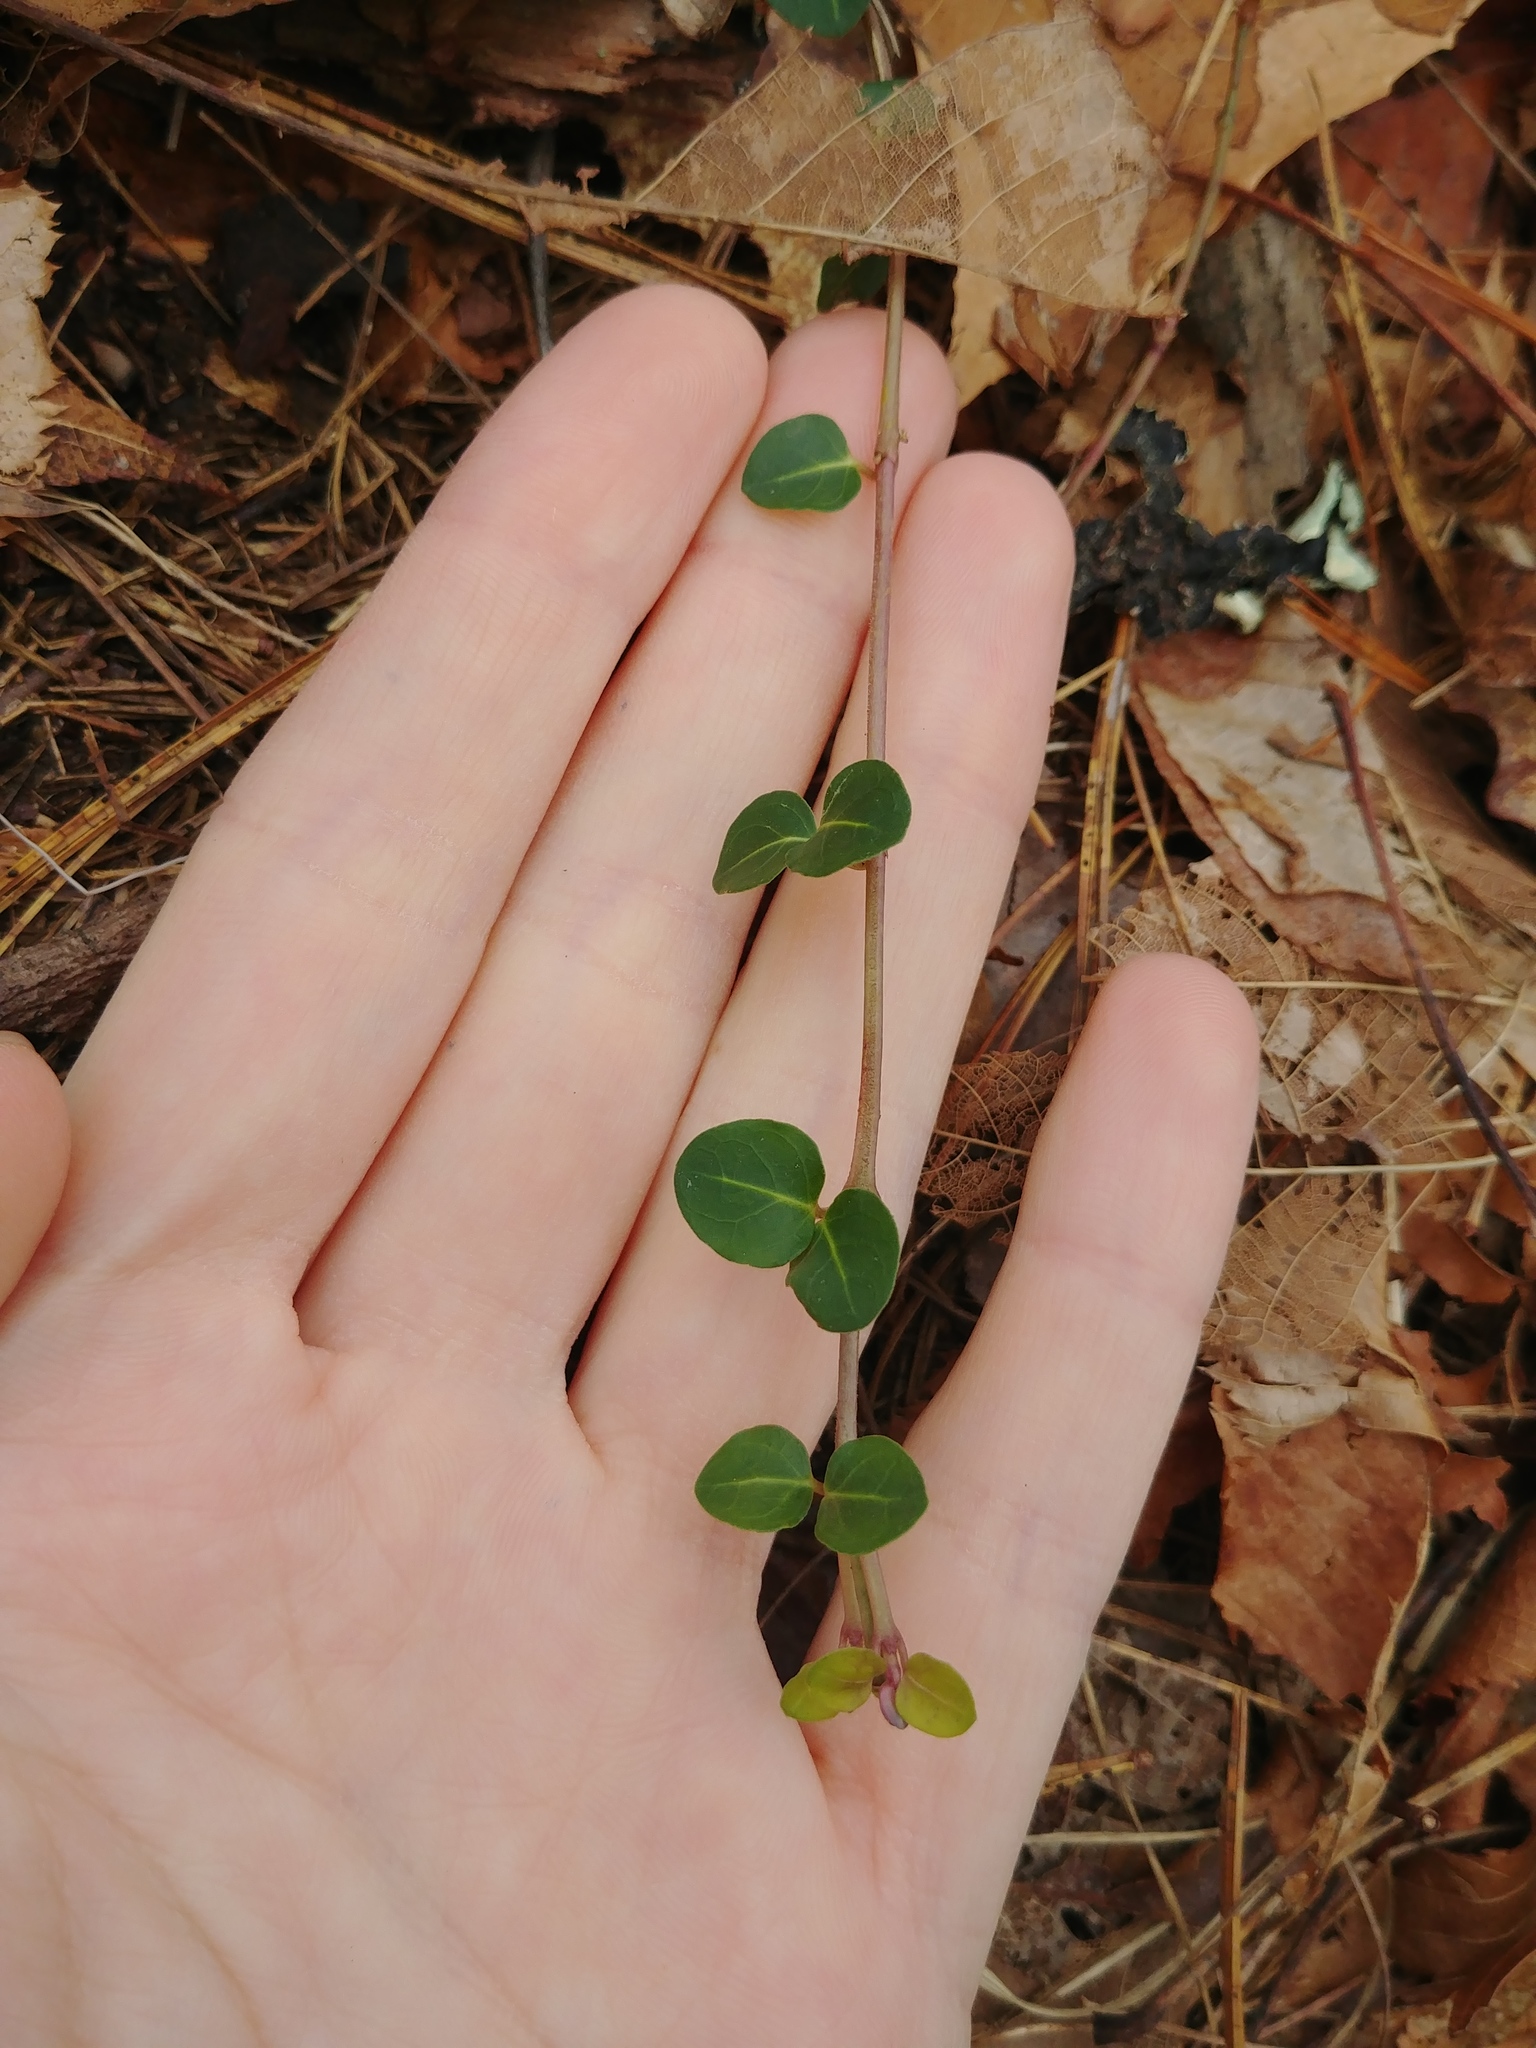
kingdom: Plantae
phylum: Tracheophyta
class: Magnoliopsida
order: Gentianales
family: Rubiaceae
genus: Mitchella
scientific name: Mitchella repens
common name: Partridge-berry
